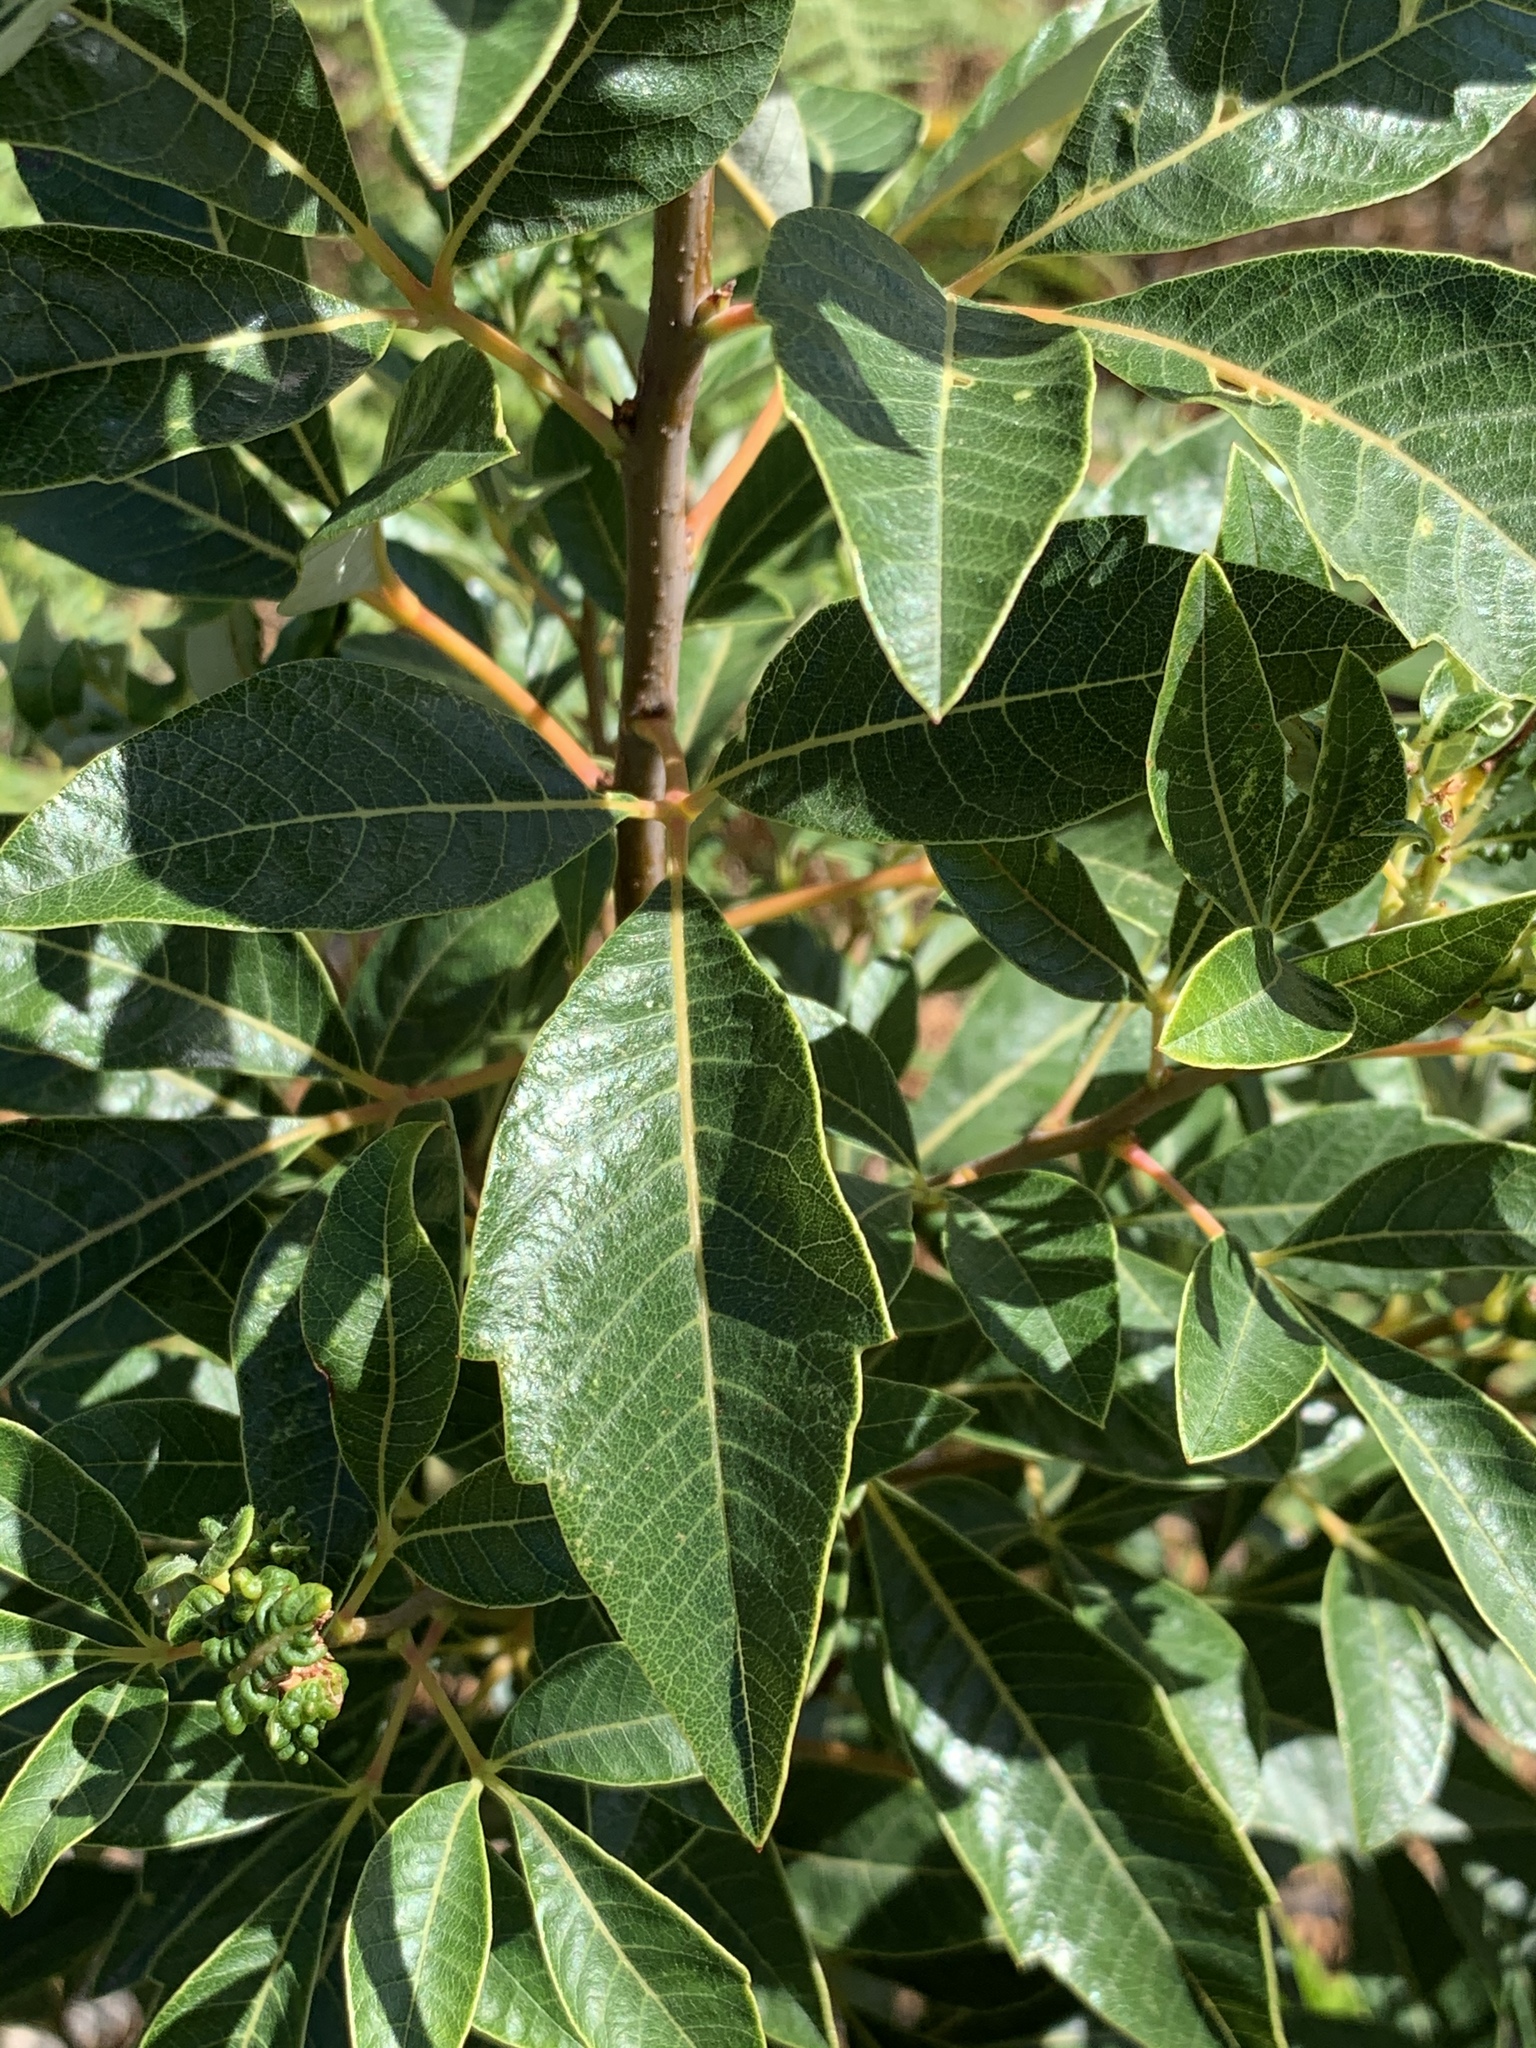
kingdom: Plantae
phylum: Tracheophyta
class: Magnoliopsida
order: Sapindales
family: Anacardiaceae
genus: Searsia
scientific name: Searsia tomentosa
